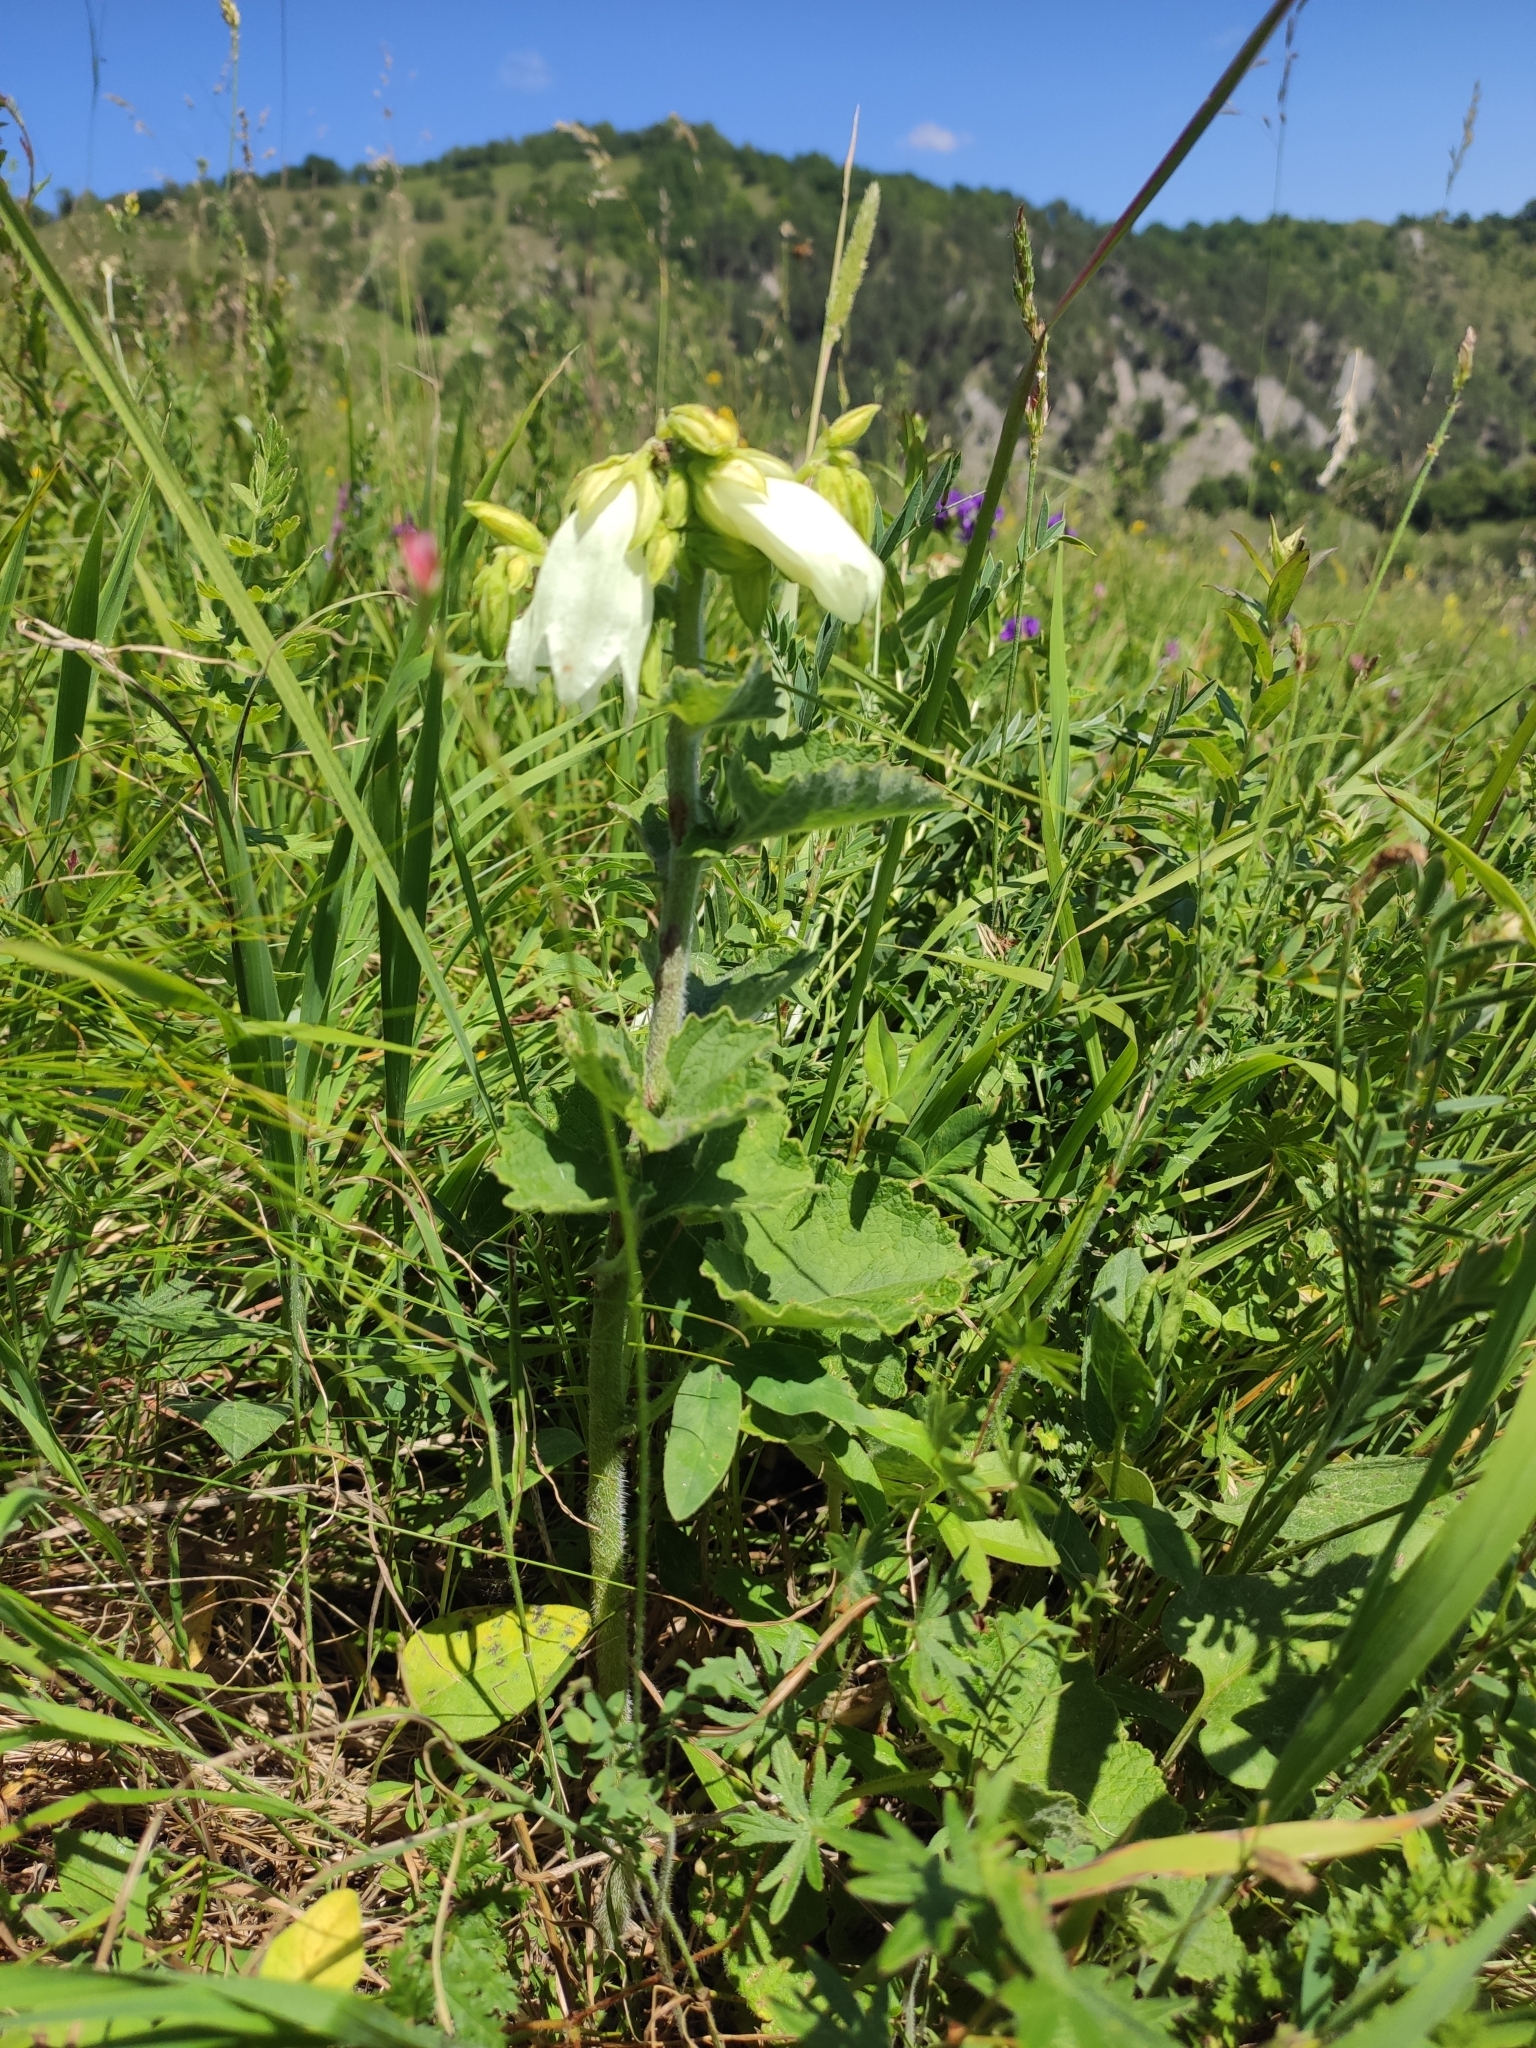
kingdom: Plantae
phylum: Tracheophyta
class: Magnoliopsida
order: Asterales
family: Campanulaceae
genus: Campanula
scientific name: Campanula alliariifolia
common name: Cornish bellflower
